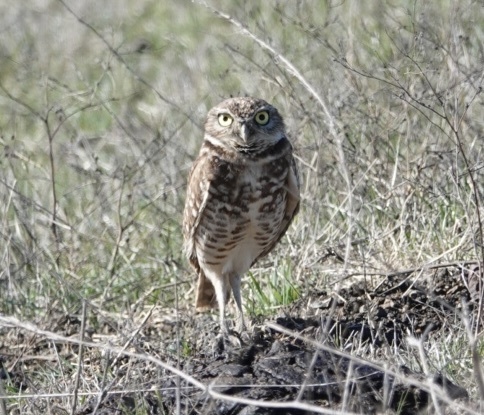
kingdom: Animalia
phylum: Chordata
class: Aves
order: Strigiformes
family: Strigidae
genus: Athene
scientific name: Athene cunicularia
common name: Burrowing owl
